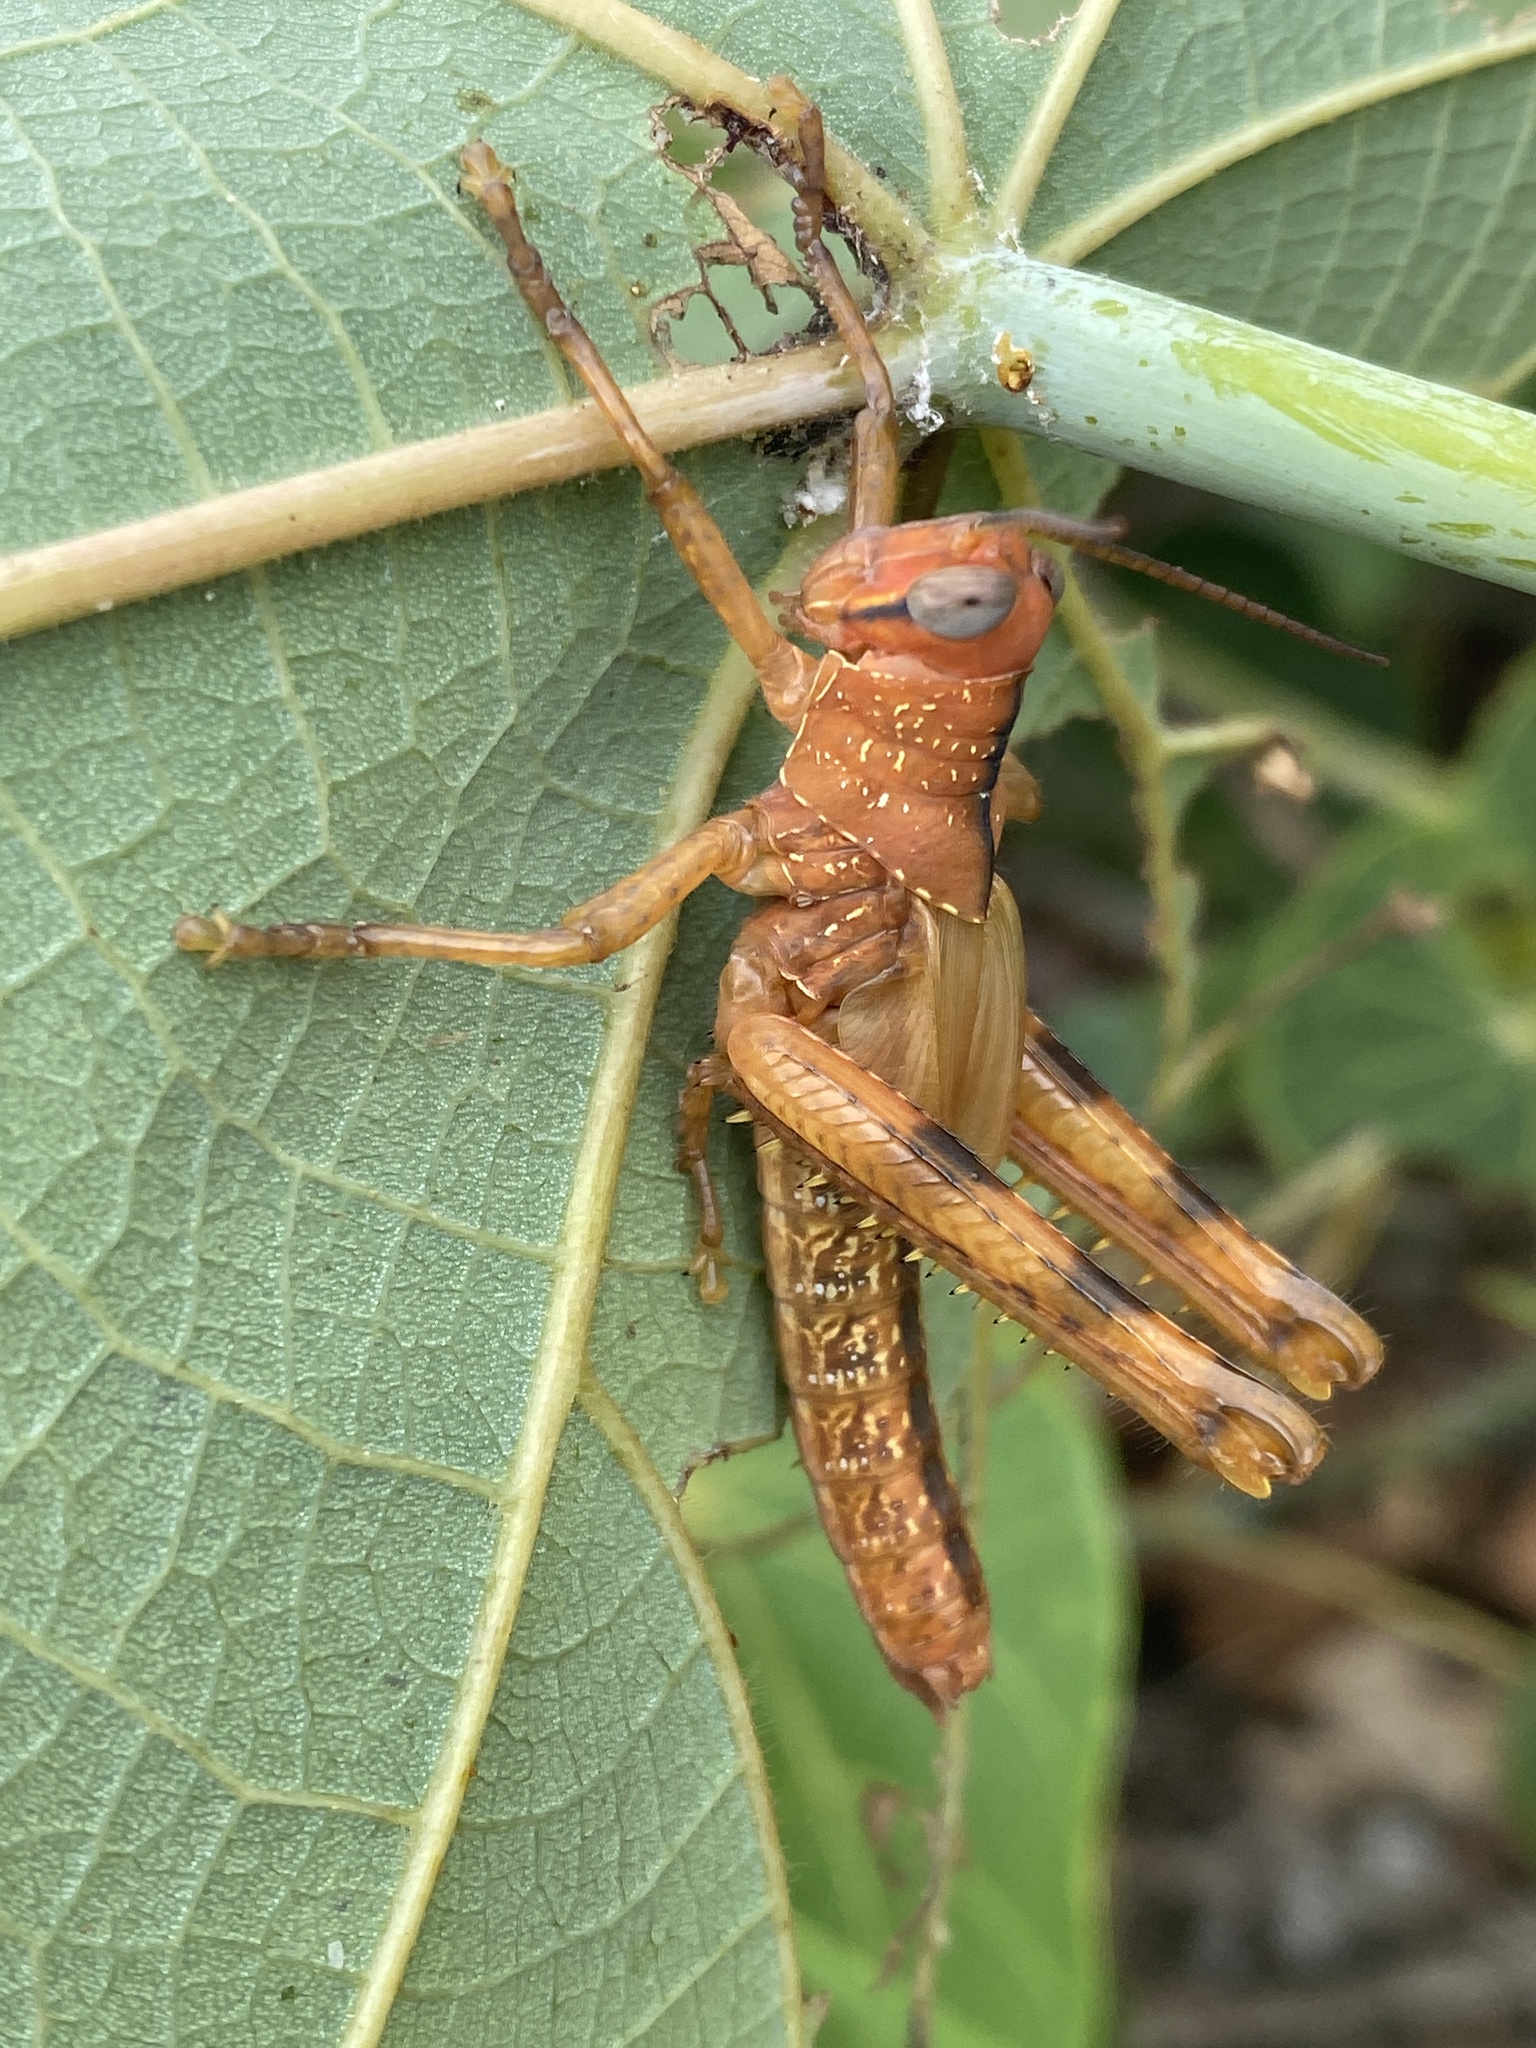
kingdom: Animalia
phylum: Arthropoda
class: Insecta
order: Orthoptera
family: Acrididae
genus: Valanga
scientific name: Valanga irregularis
